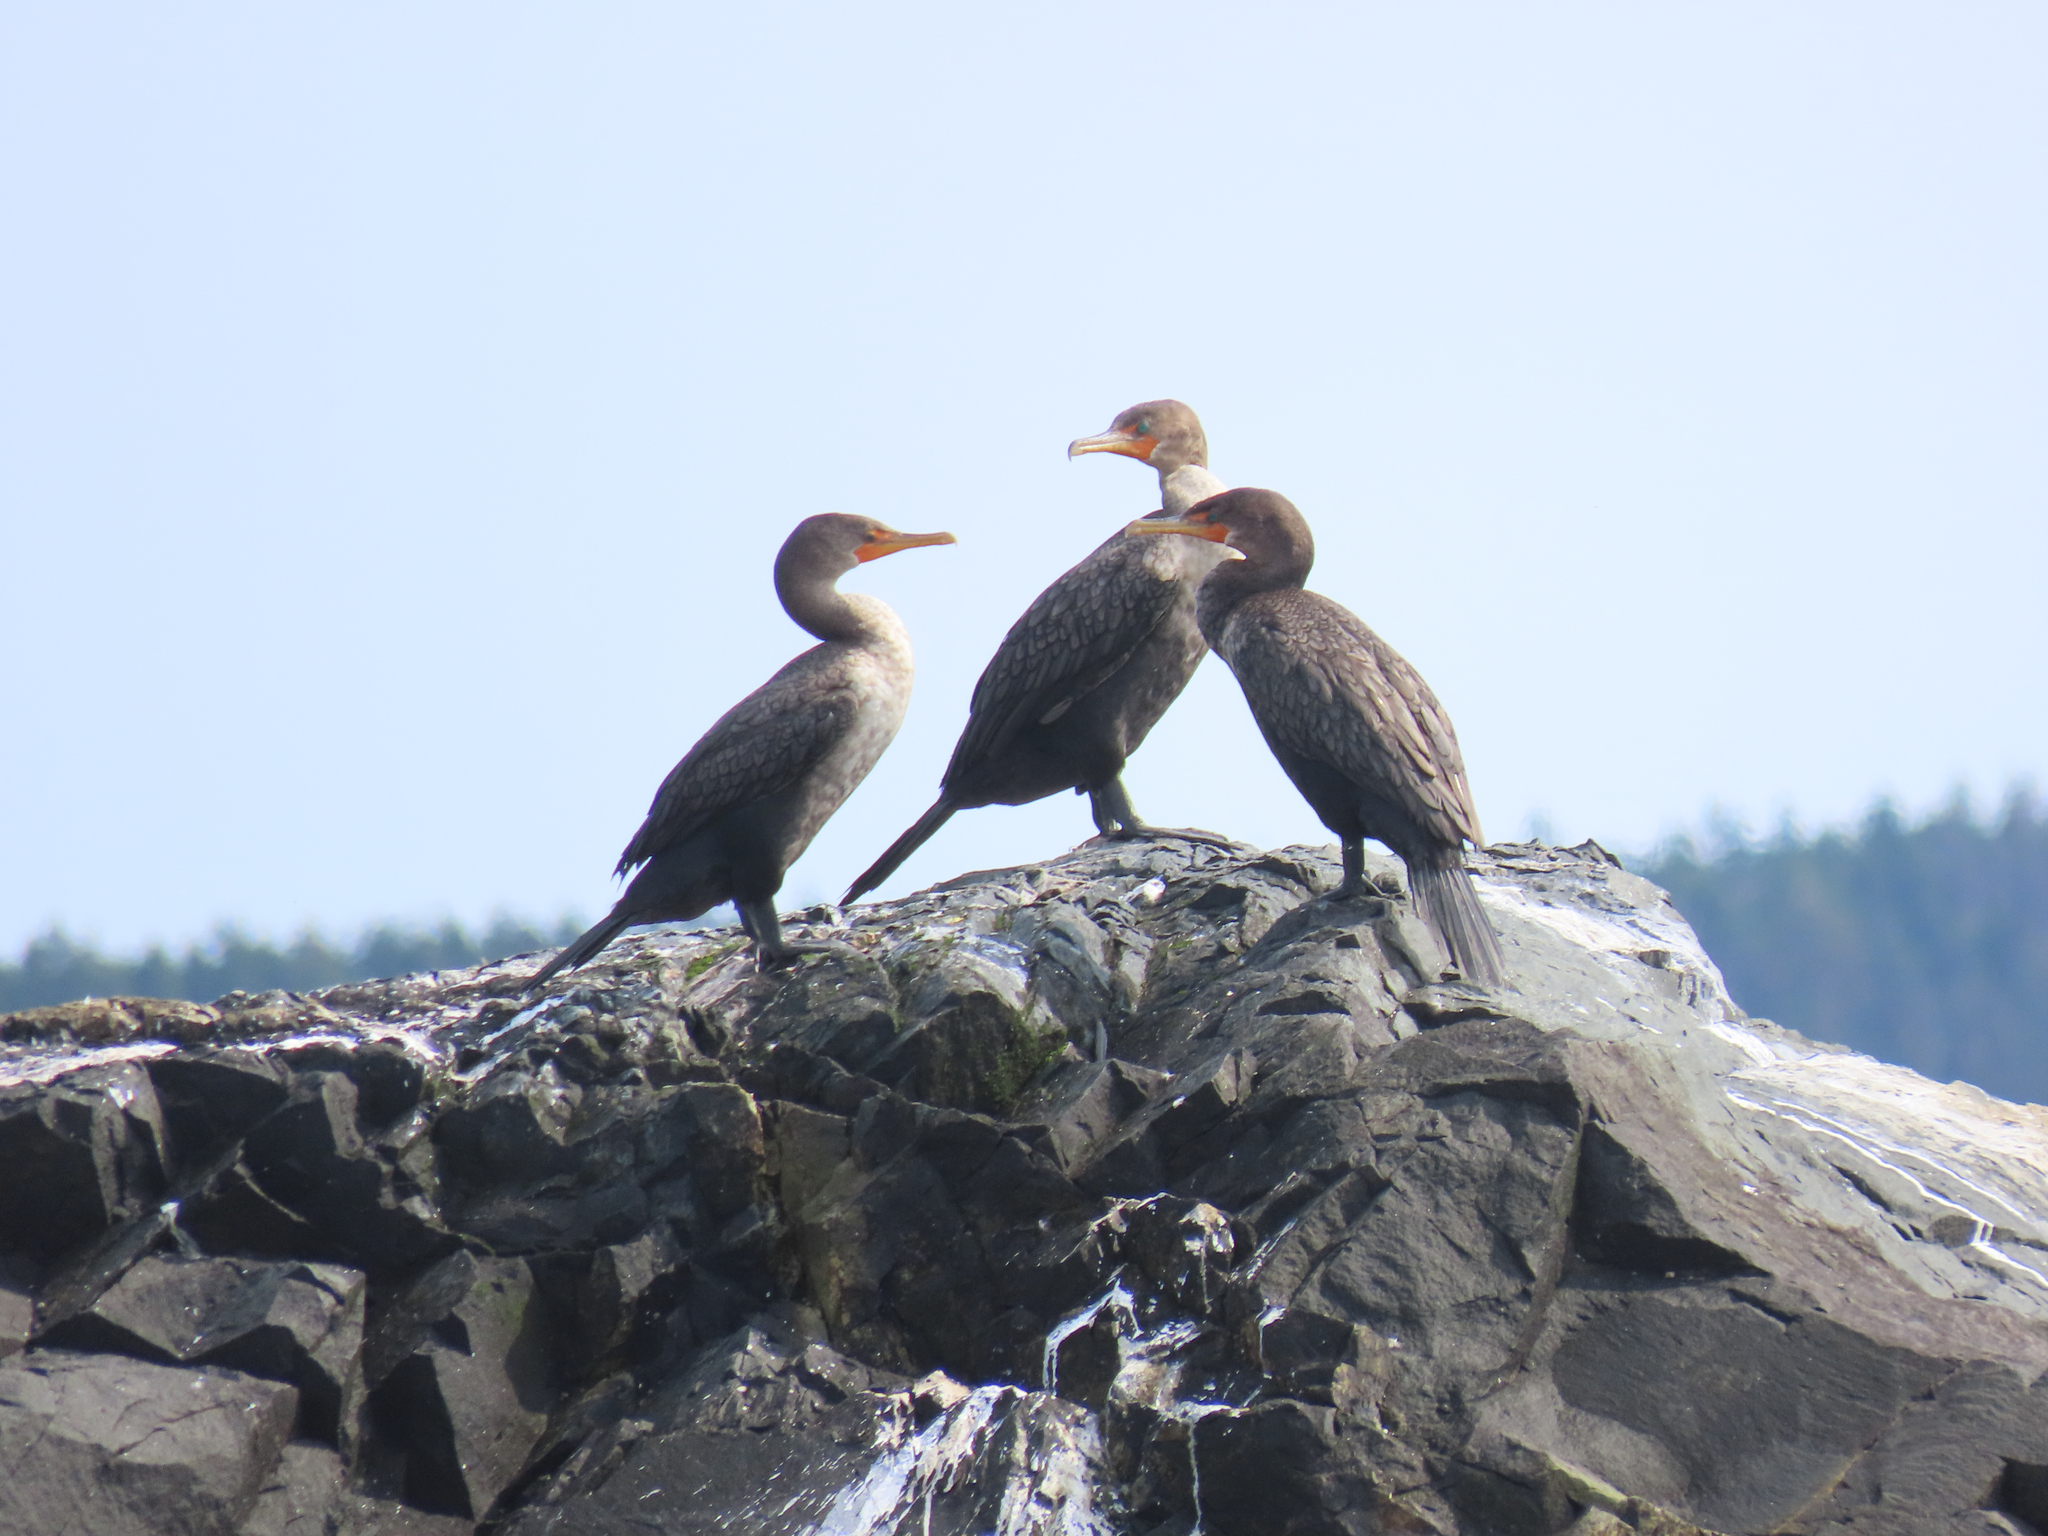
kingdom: Animalia
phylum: Chordata
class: Aves
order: Suliformes
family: Phalacrocoracidae
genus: Phalacrocorax
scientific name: Phalacrocorax auritus
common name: Double-crested cormorant
